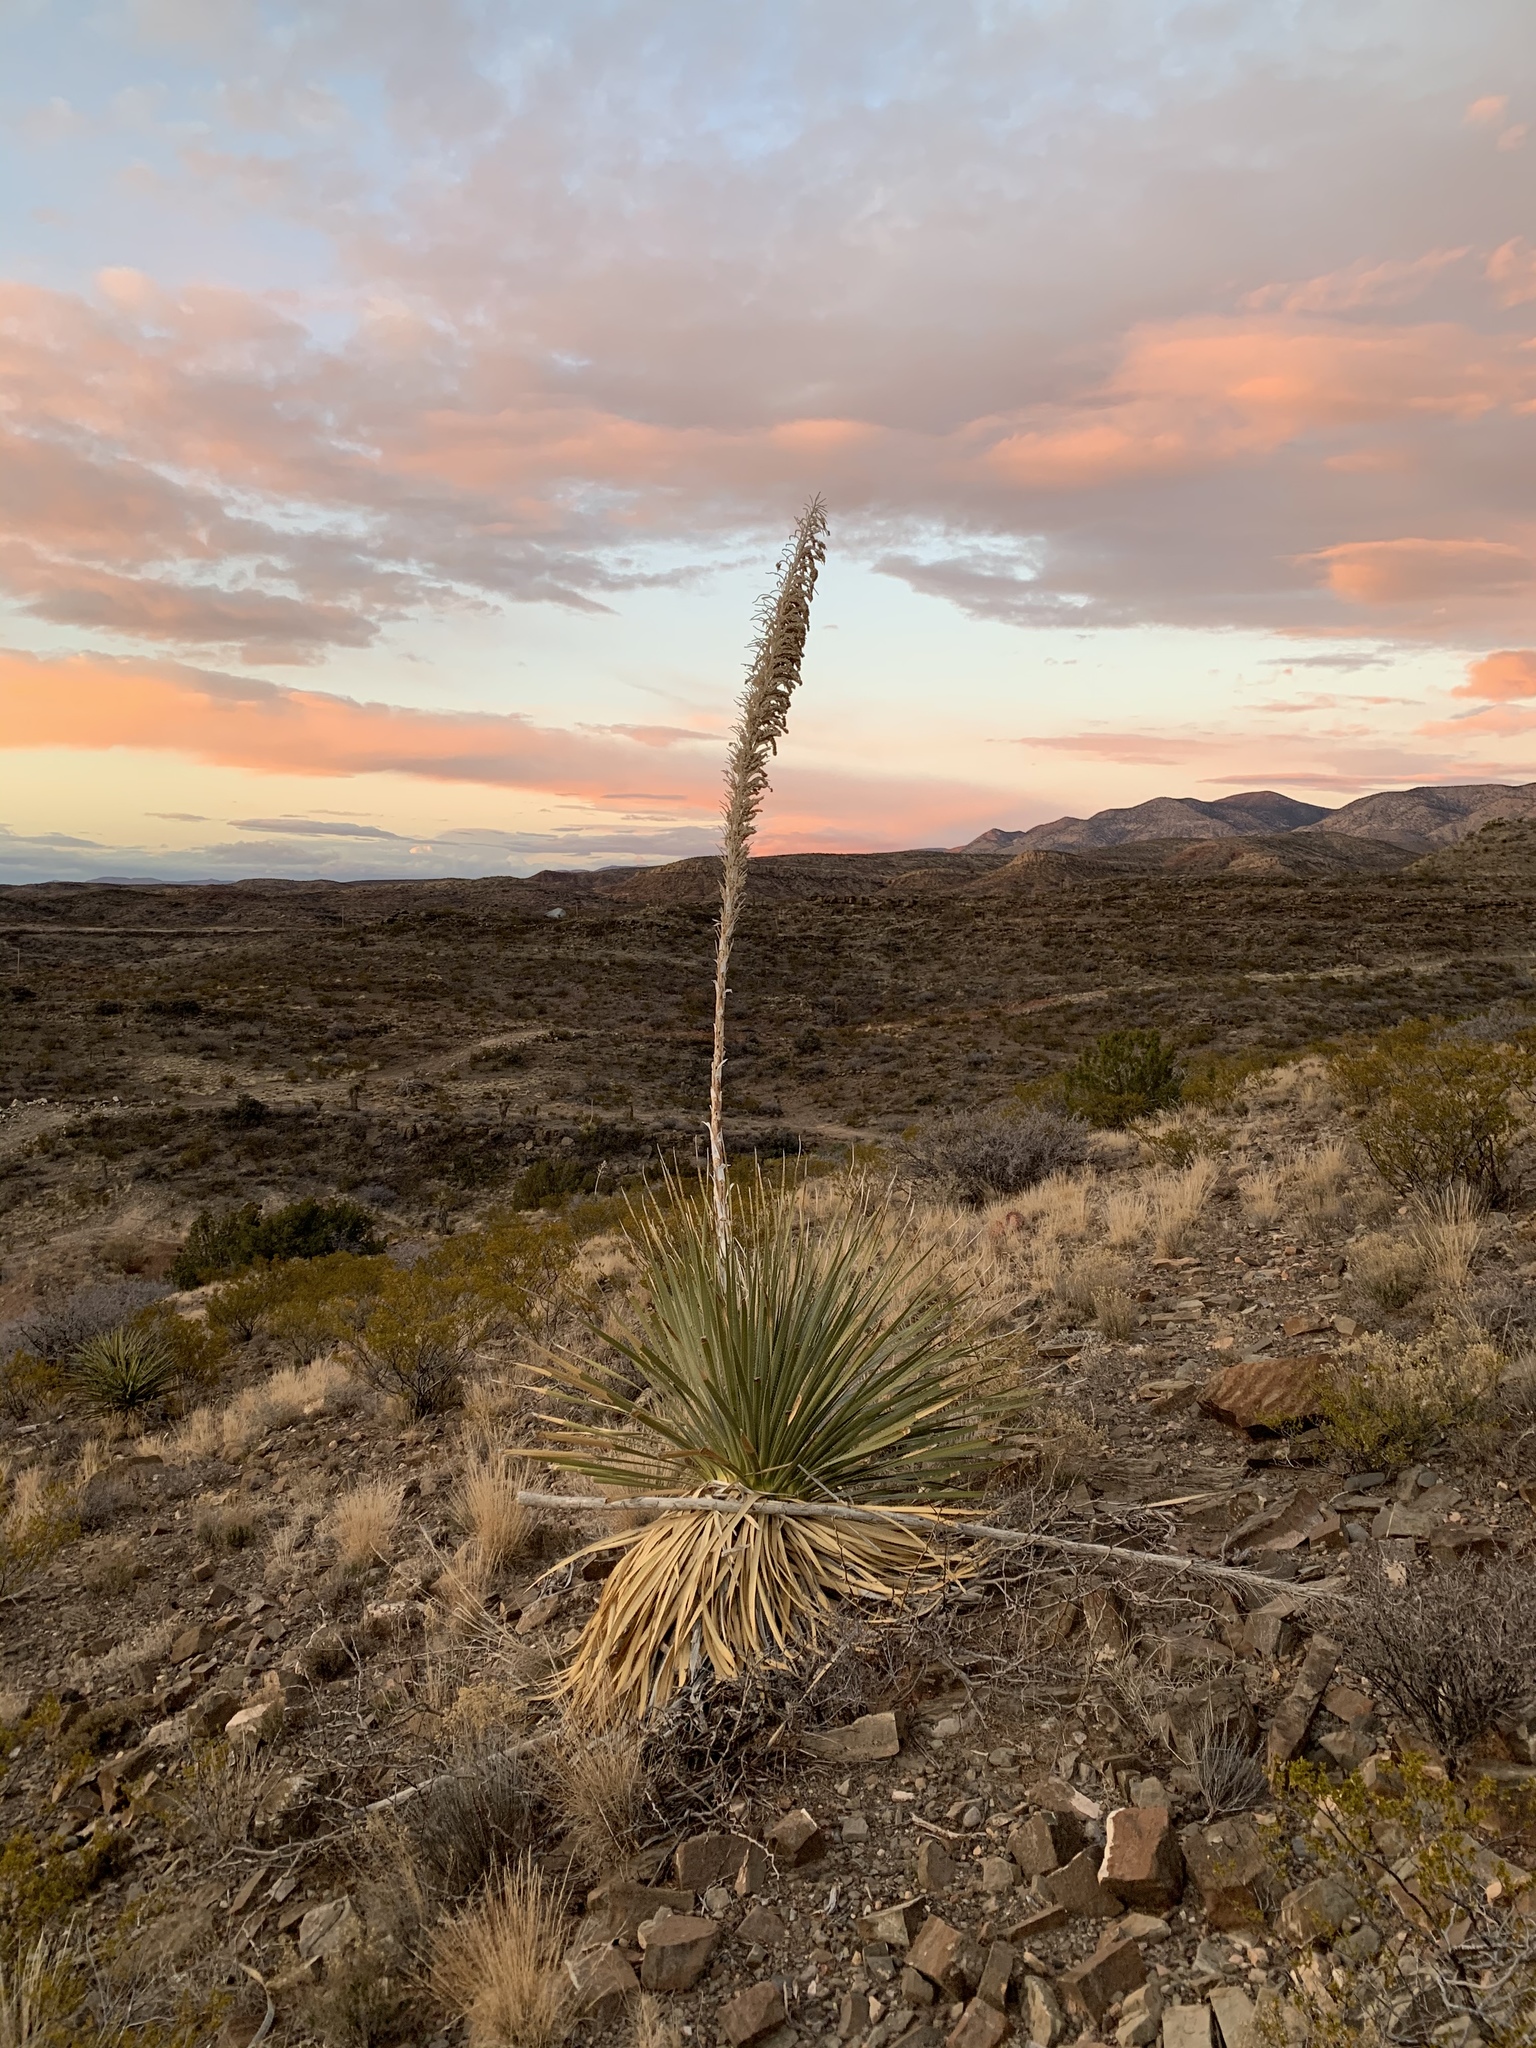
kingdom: Plantae
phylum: Tracheophyta
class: Liliopsida
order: Asparagales
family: Asparagaceae
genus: Dasylirion
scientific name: Dasylirion wheeleri
